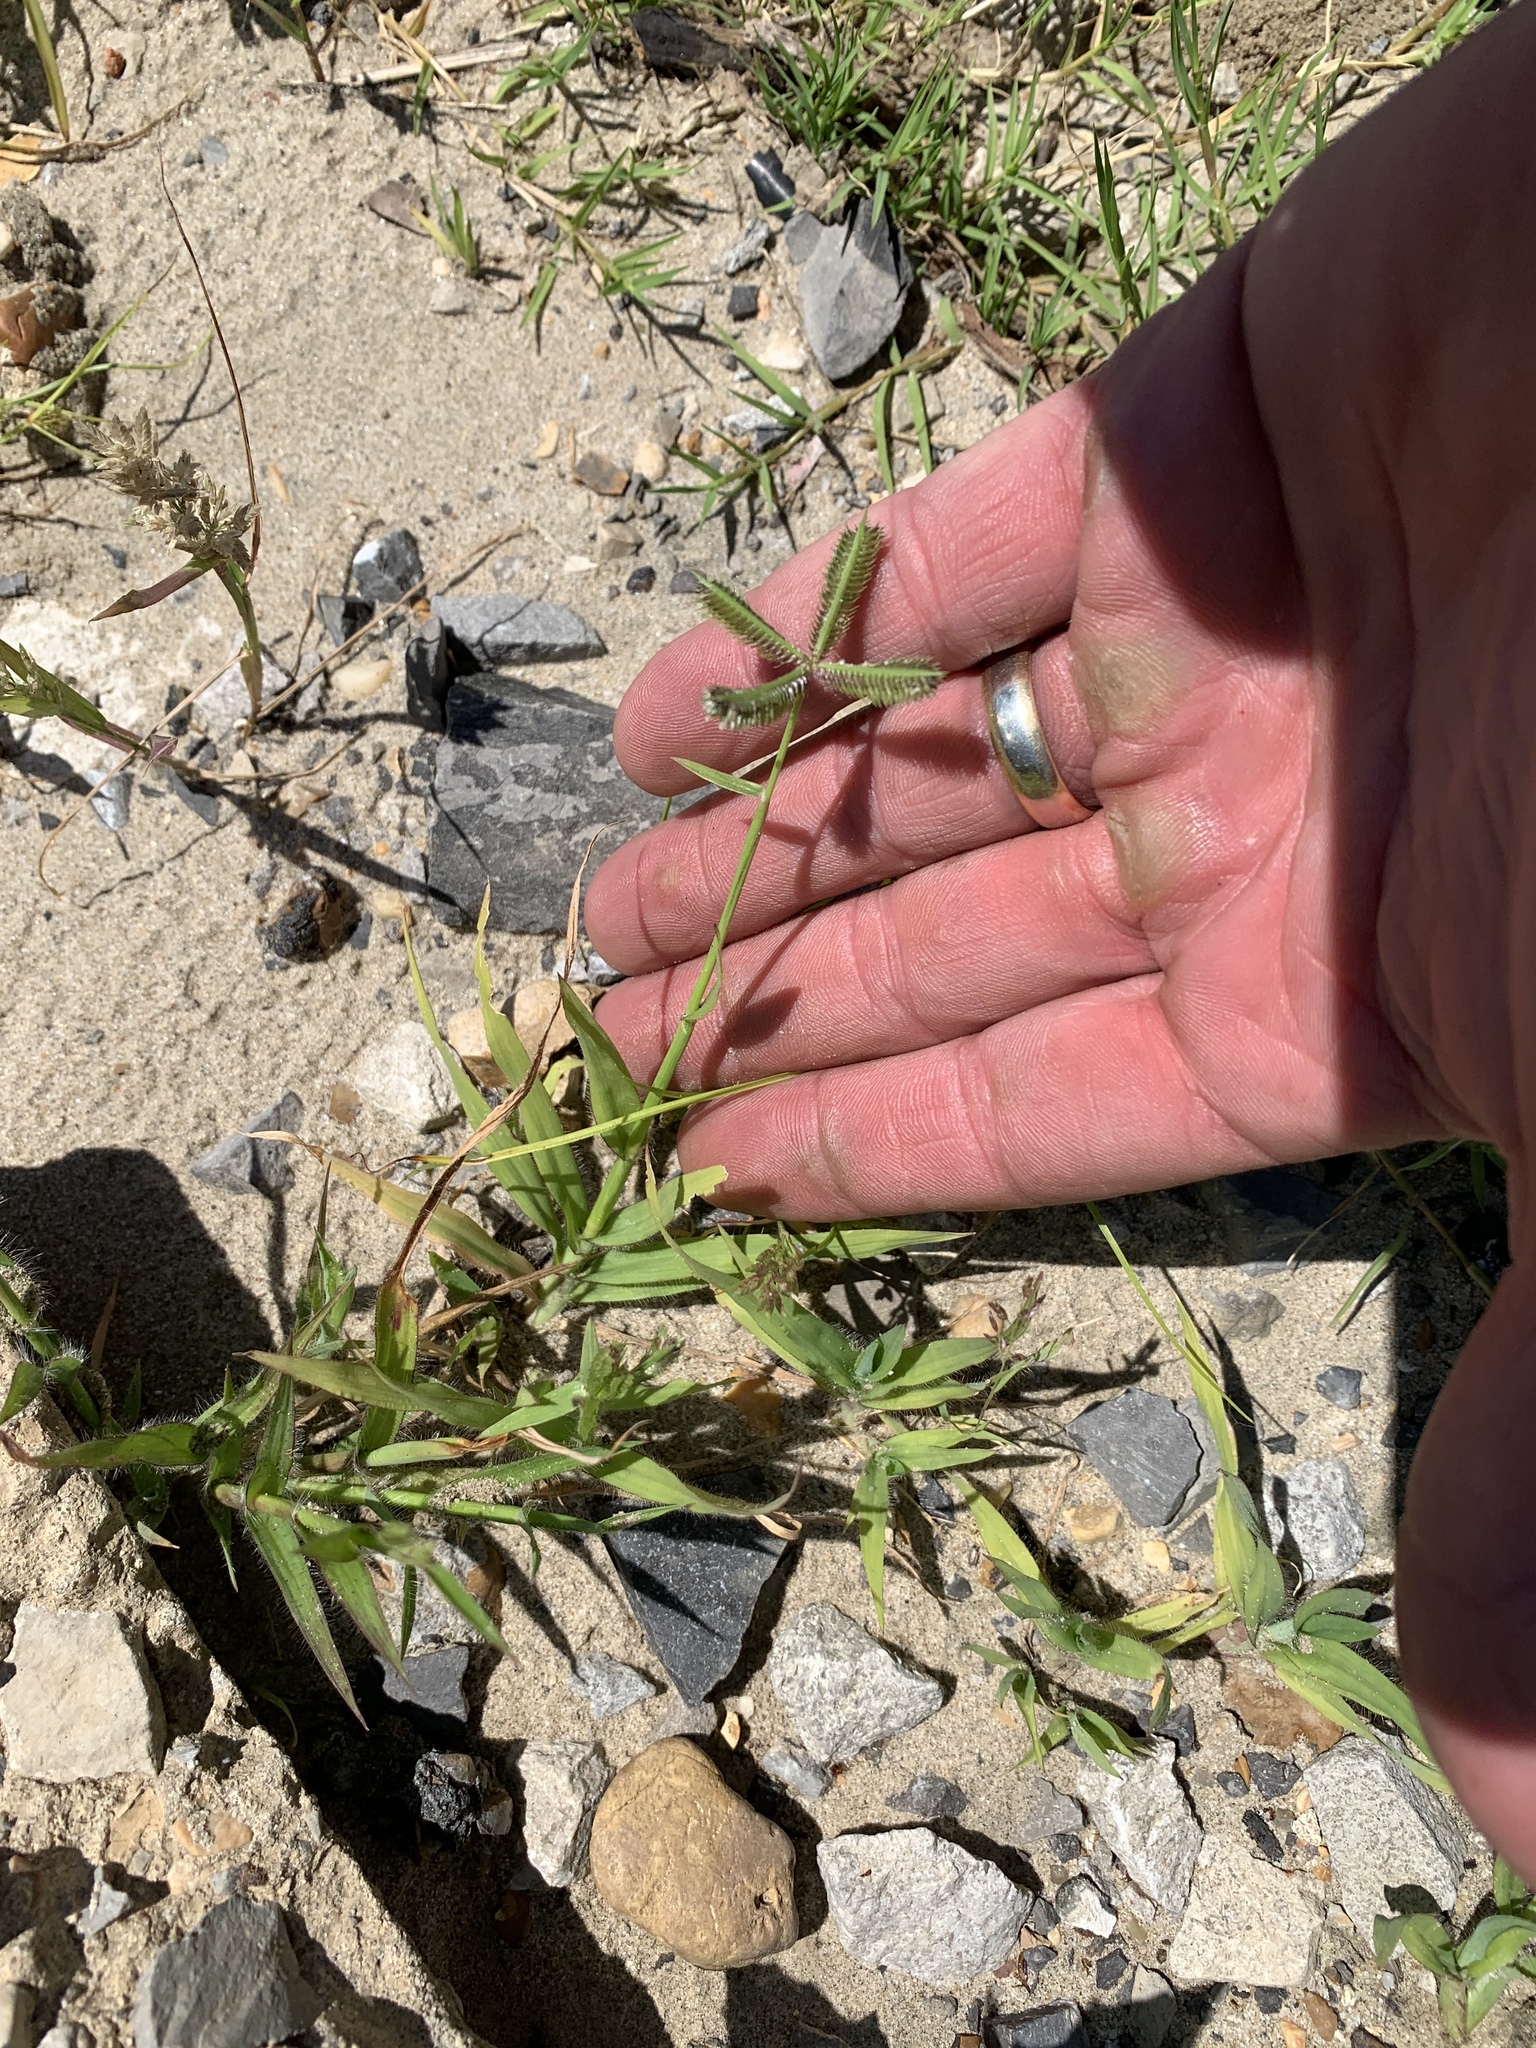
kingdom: Plantae
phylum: Tracheophyta
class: Liliopsida
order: Poales
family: Poaceae
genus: Dactyloctenium
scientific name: Dactyloctenium aegyptium
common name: Egyptian grass
